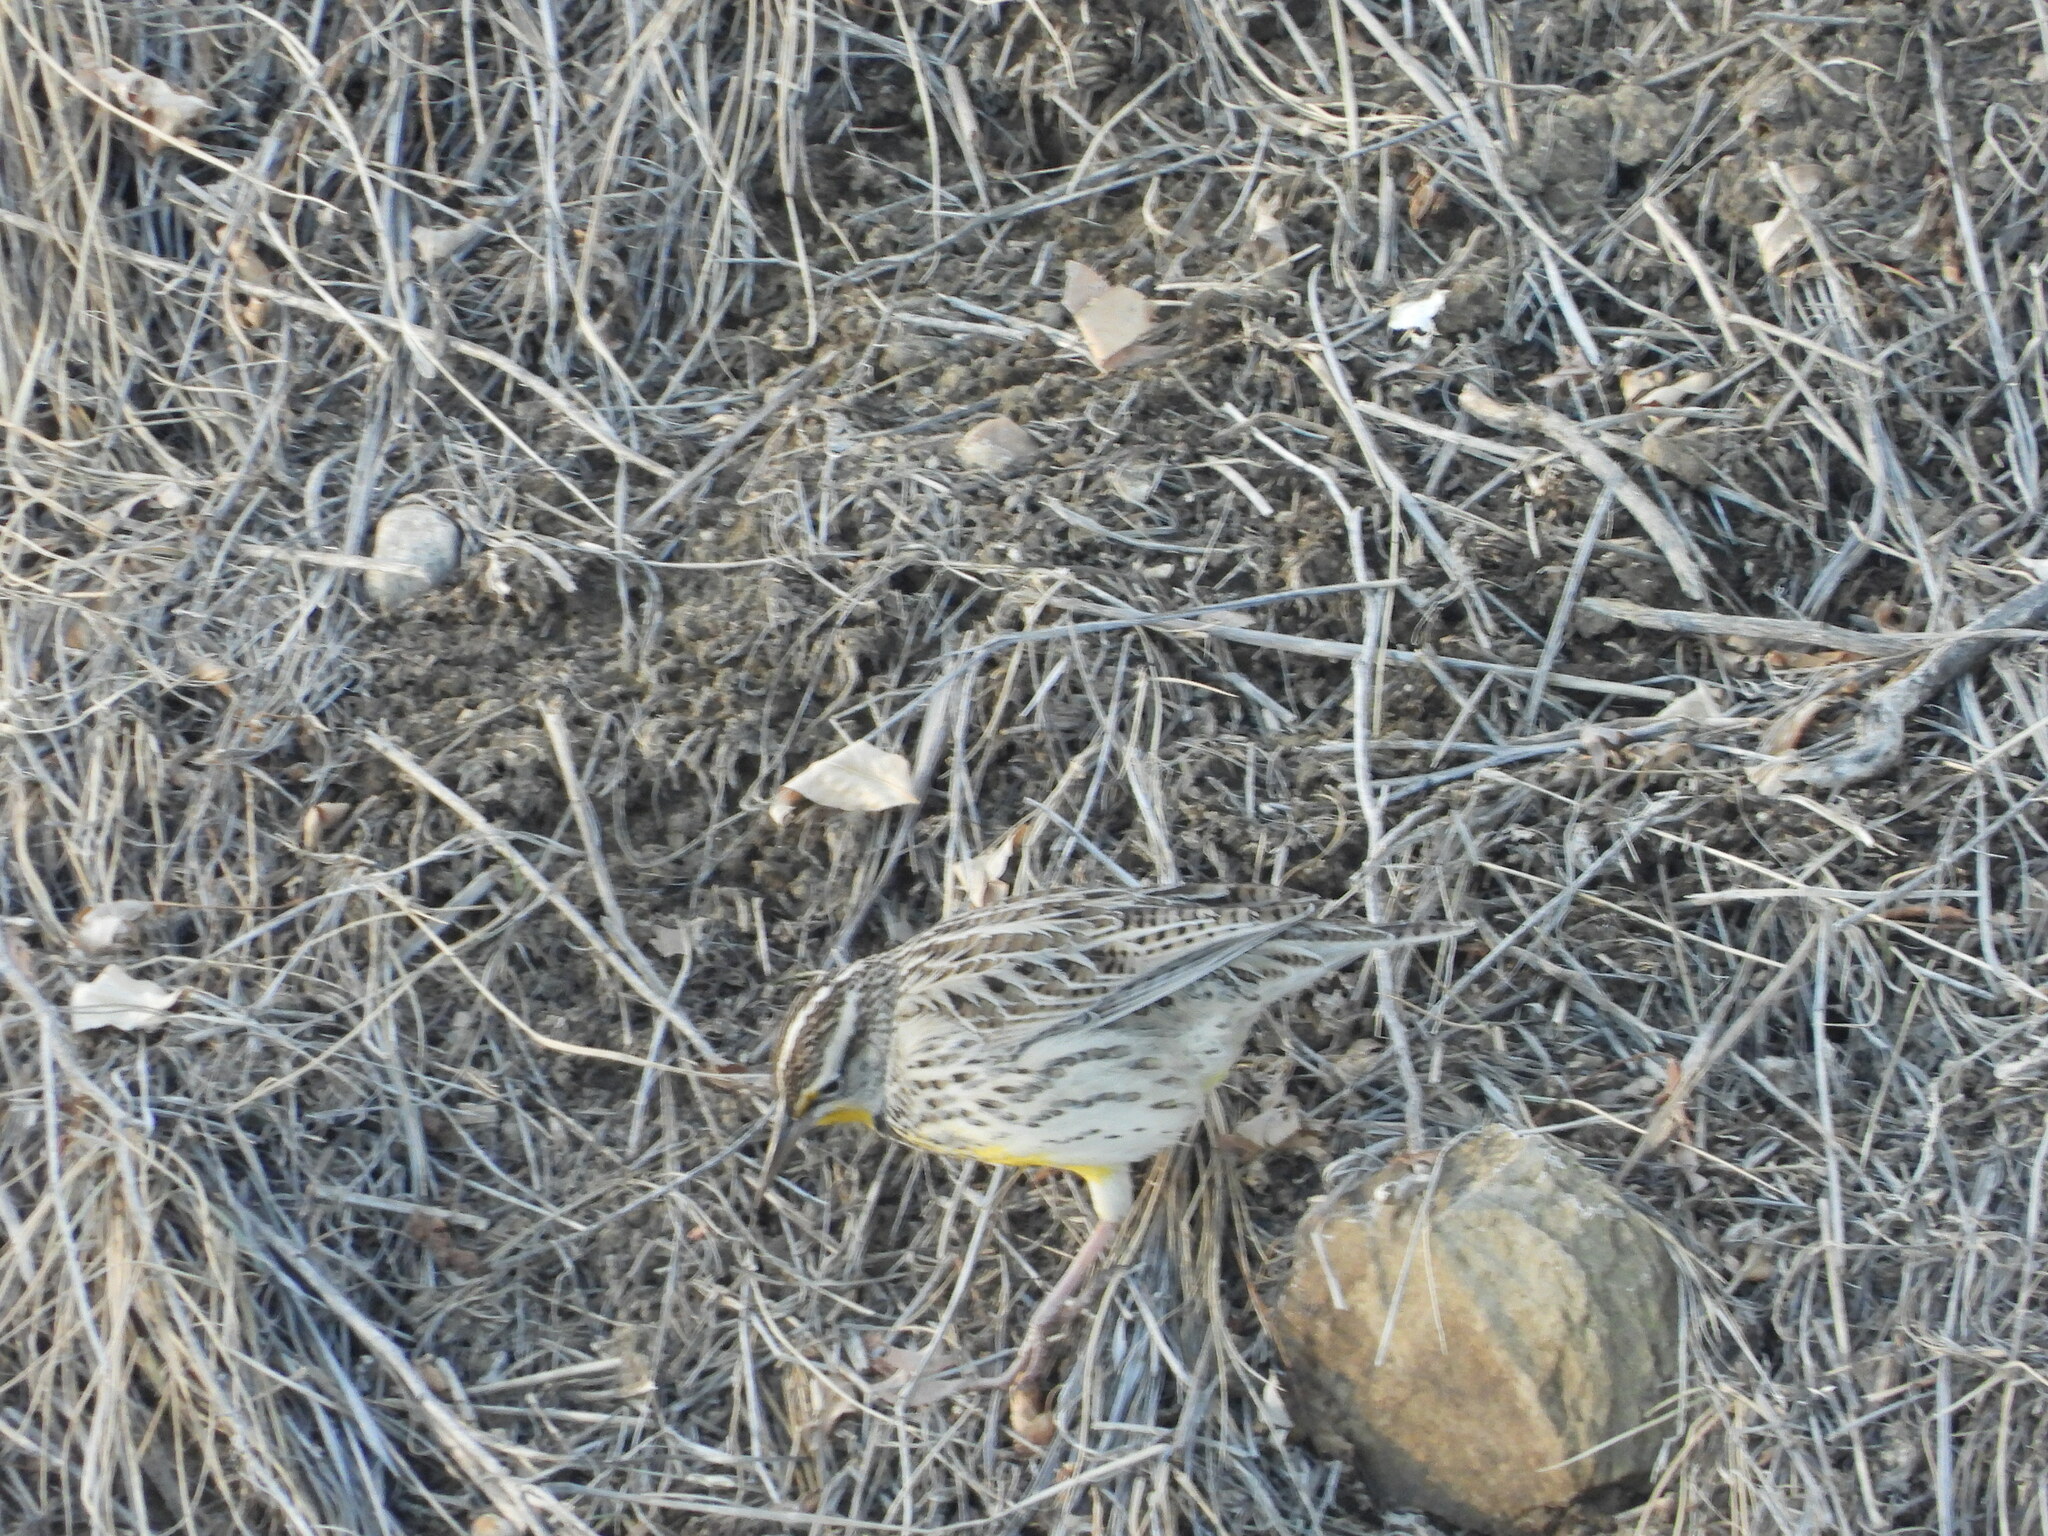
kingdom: Animalia
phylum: Chordata
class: Aves
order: Passeriformes
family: Icteridae
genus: Sturnella
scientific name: Sturnella neglecta
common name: Western meadowlark
